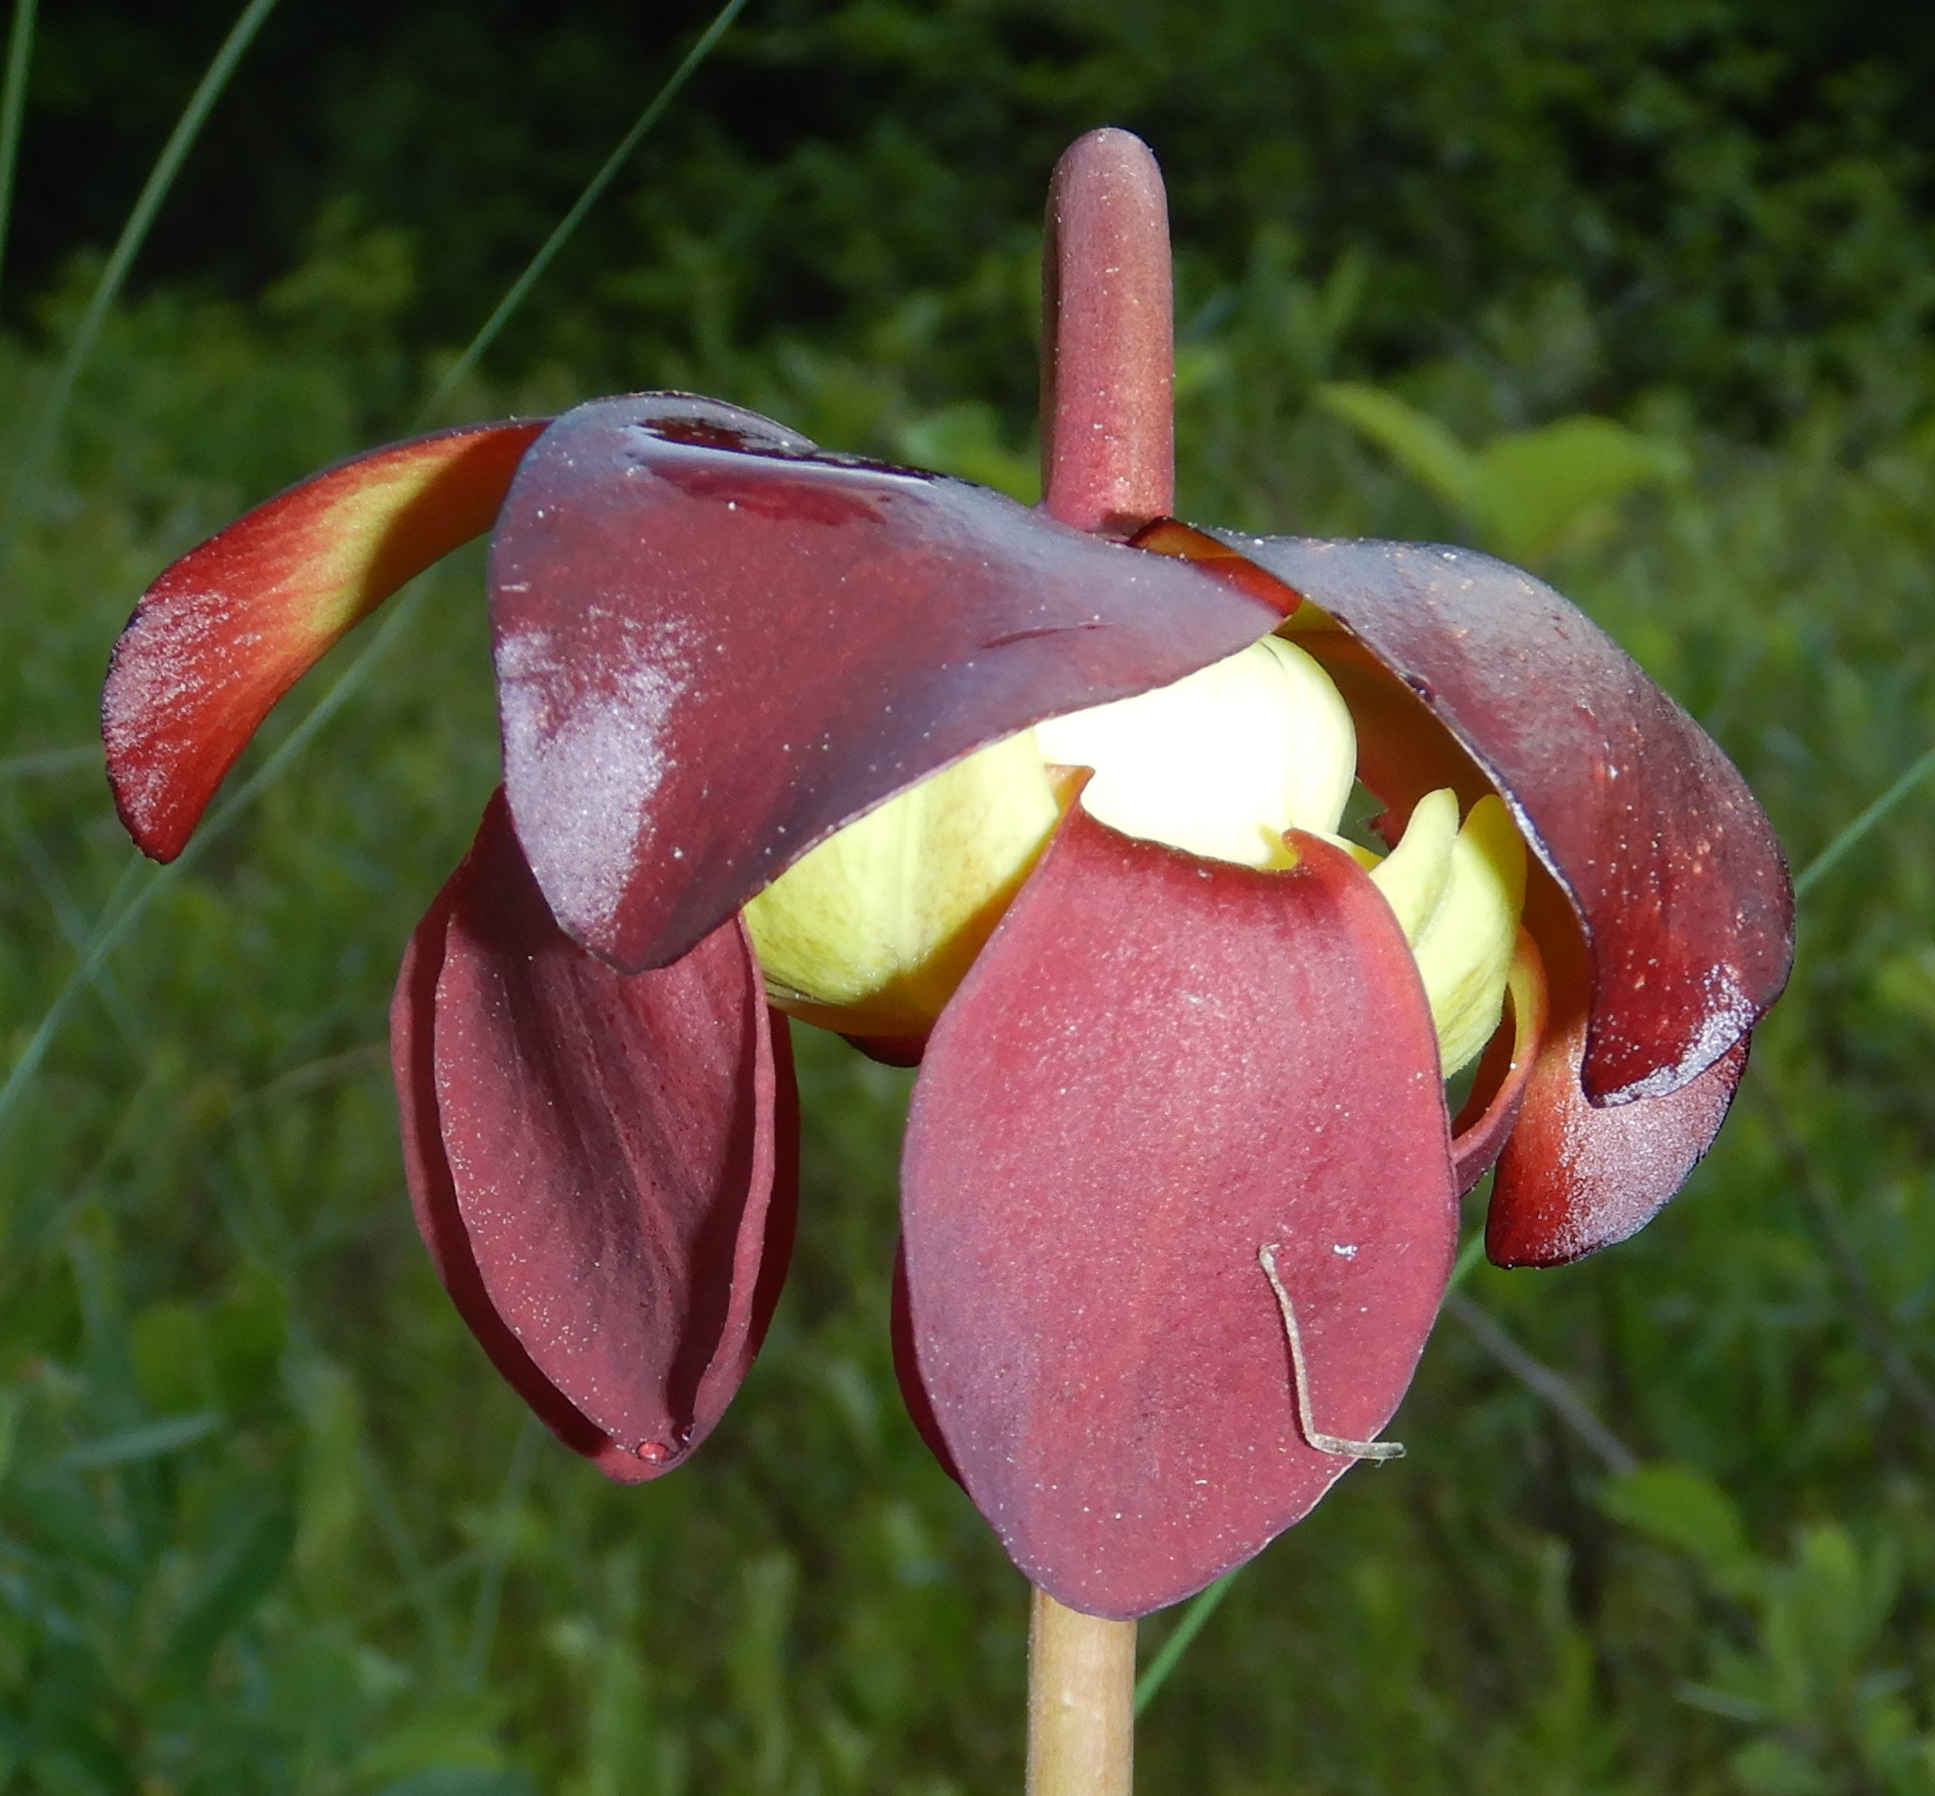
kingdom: Plantae
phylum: Tracheophyta
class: Magnoliopsida
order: Ericales
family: Sarraceniaceae
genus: Sarracenia
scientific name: Sarracenia purpurea
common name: Pitcherplant
